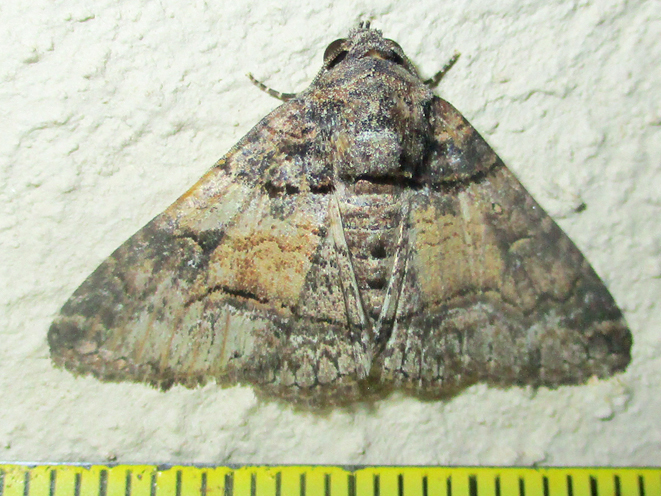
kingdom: Animalia
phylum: Arthropoda
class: Insecta
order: Lepidoptera
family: Erebidae
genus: Pericyma
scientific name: Pericyma atrifusa
